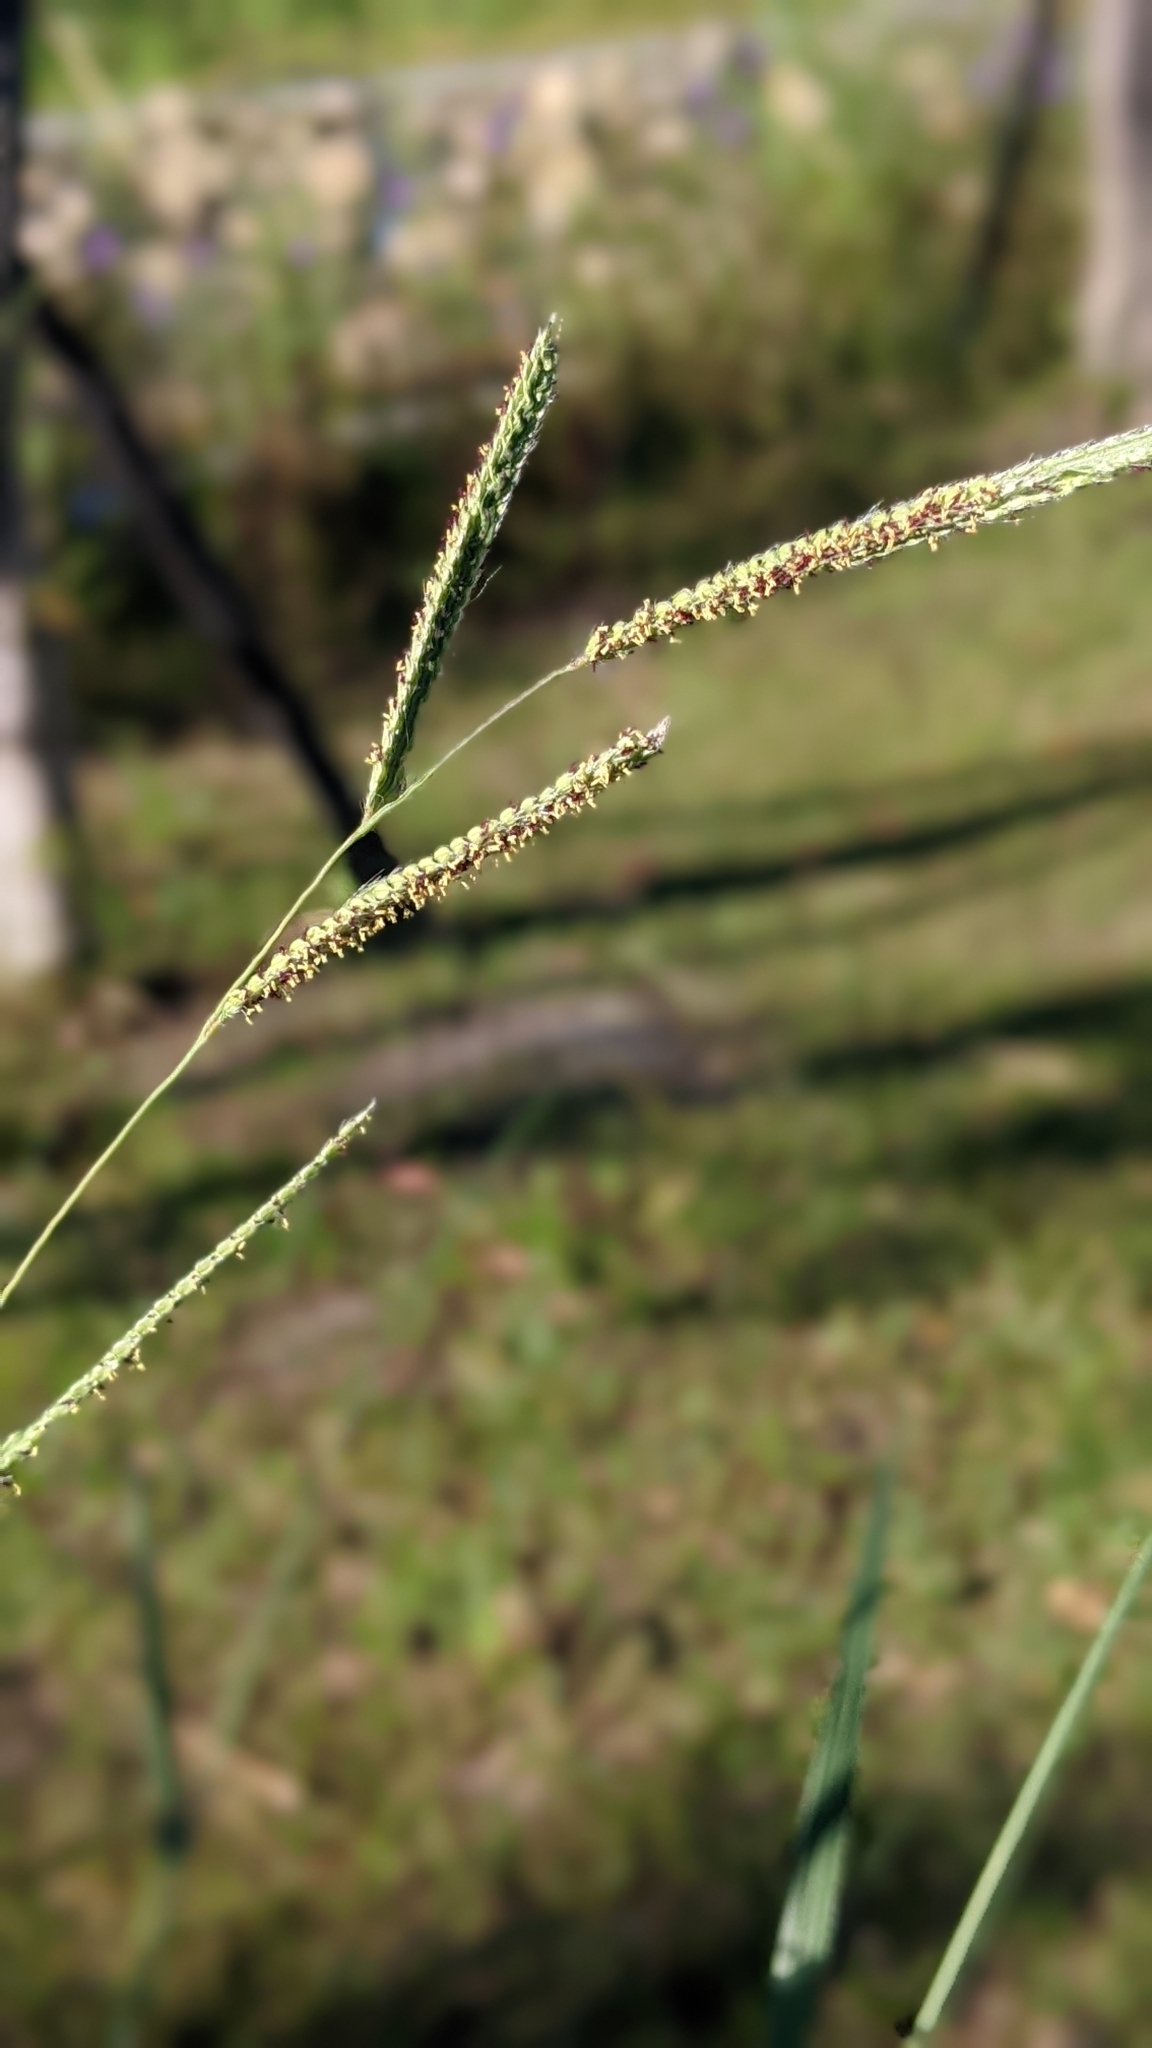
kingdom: Plantae
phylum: Tracheophyta
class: Liliopsida
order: Poales
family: Poaceae
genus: Paspalum
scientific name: Paspalum urvillei
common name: Vasey's grass
